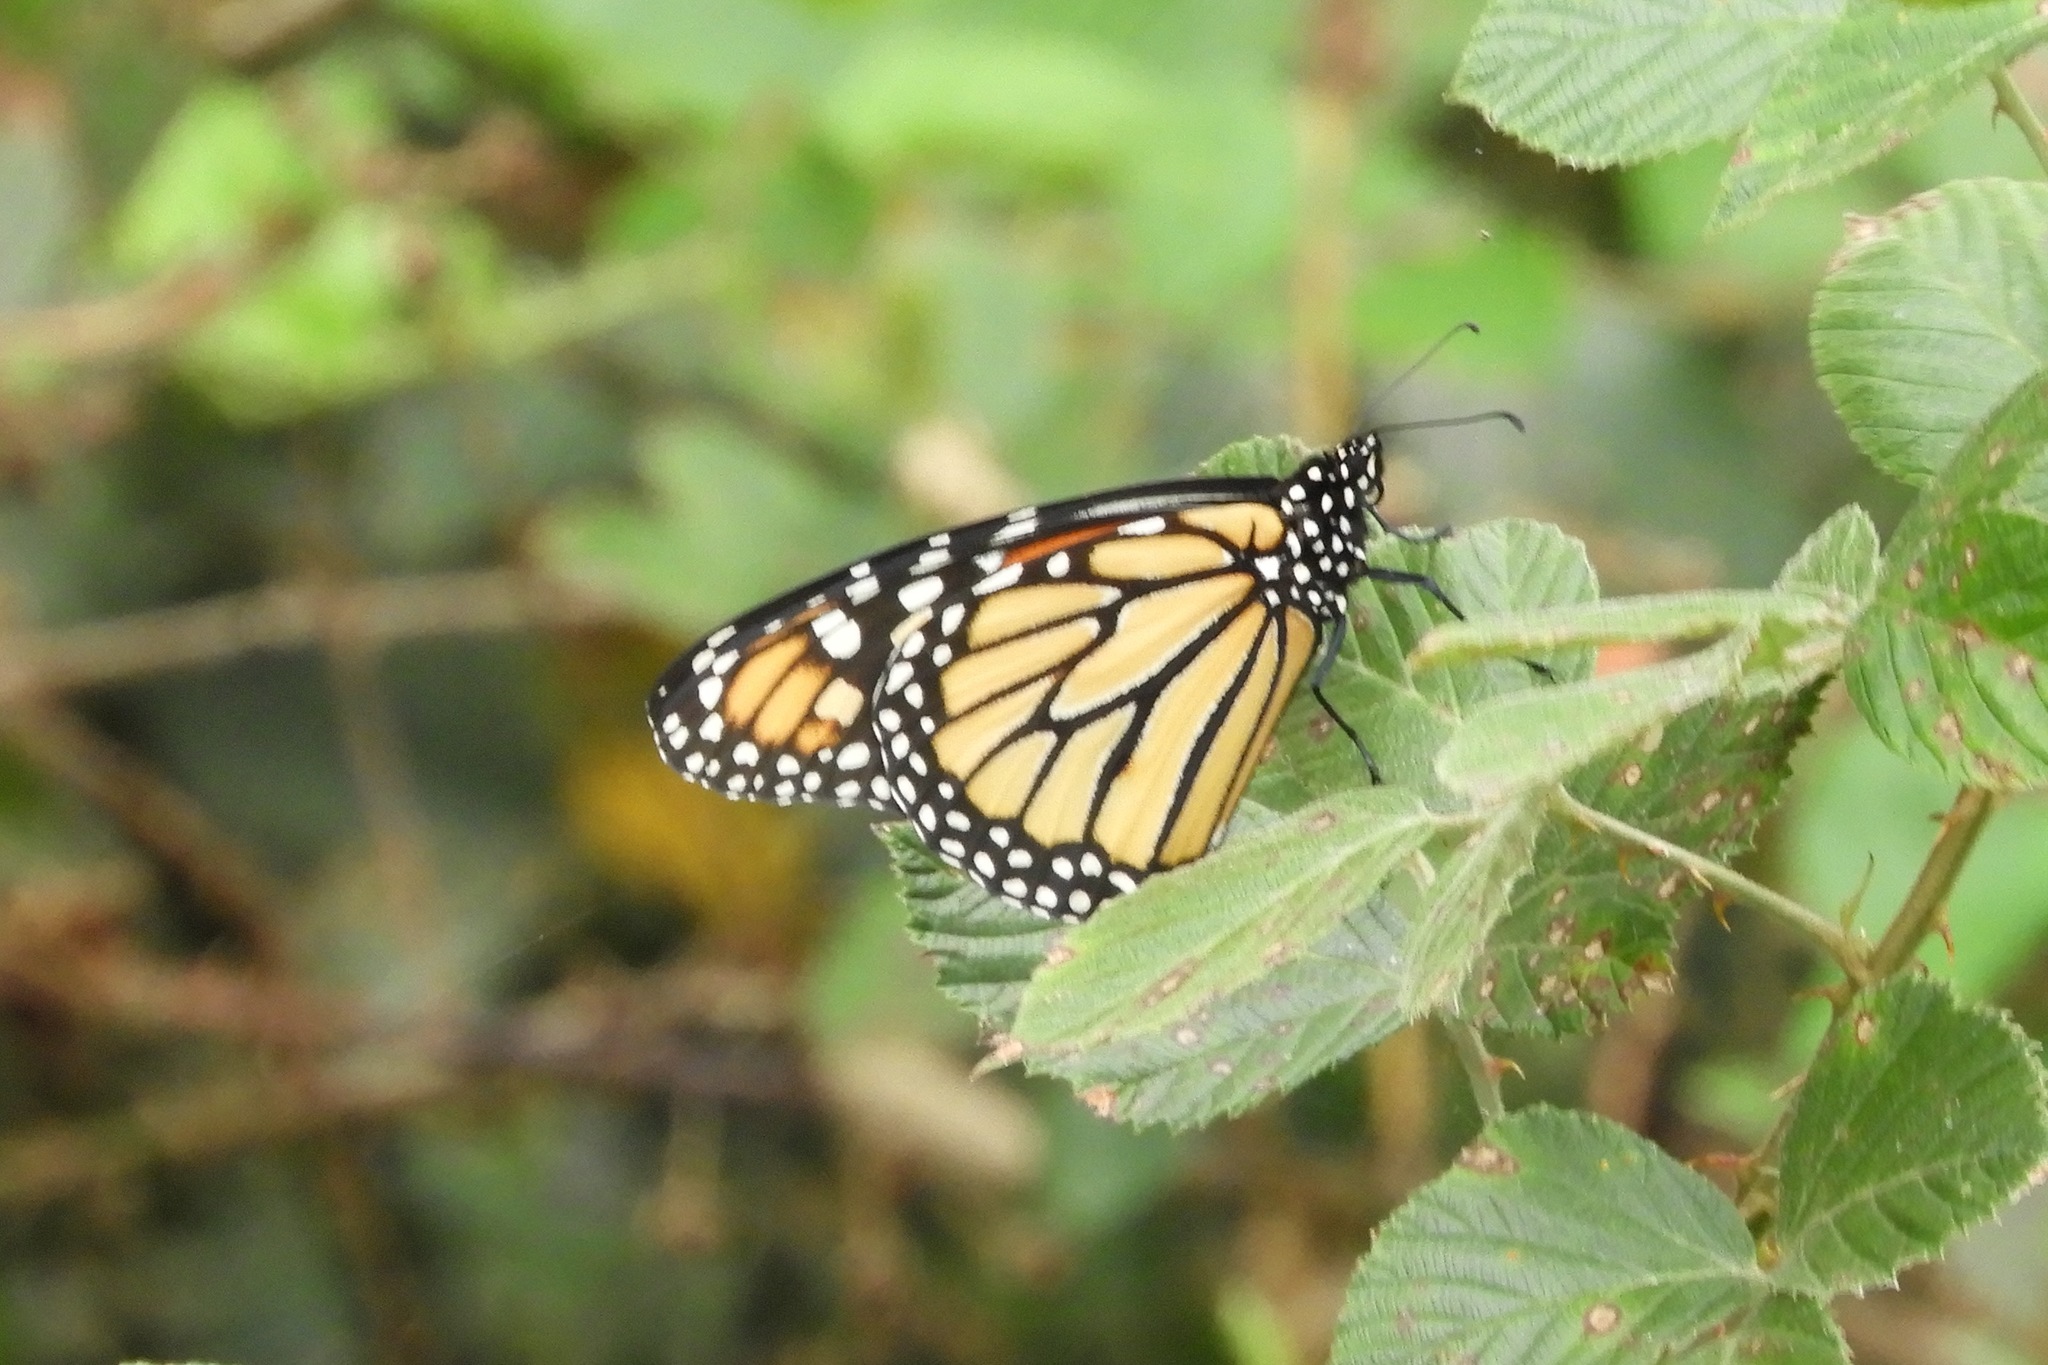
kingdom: Animalia
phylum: Arthropoda
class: Insecta
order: Lepidoptera
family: Nymphalidae
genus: Danaus
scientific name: Danaus plexippus
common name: Monarch
